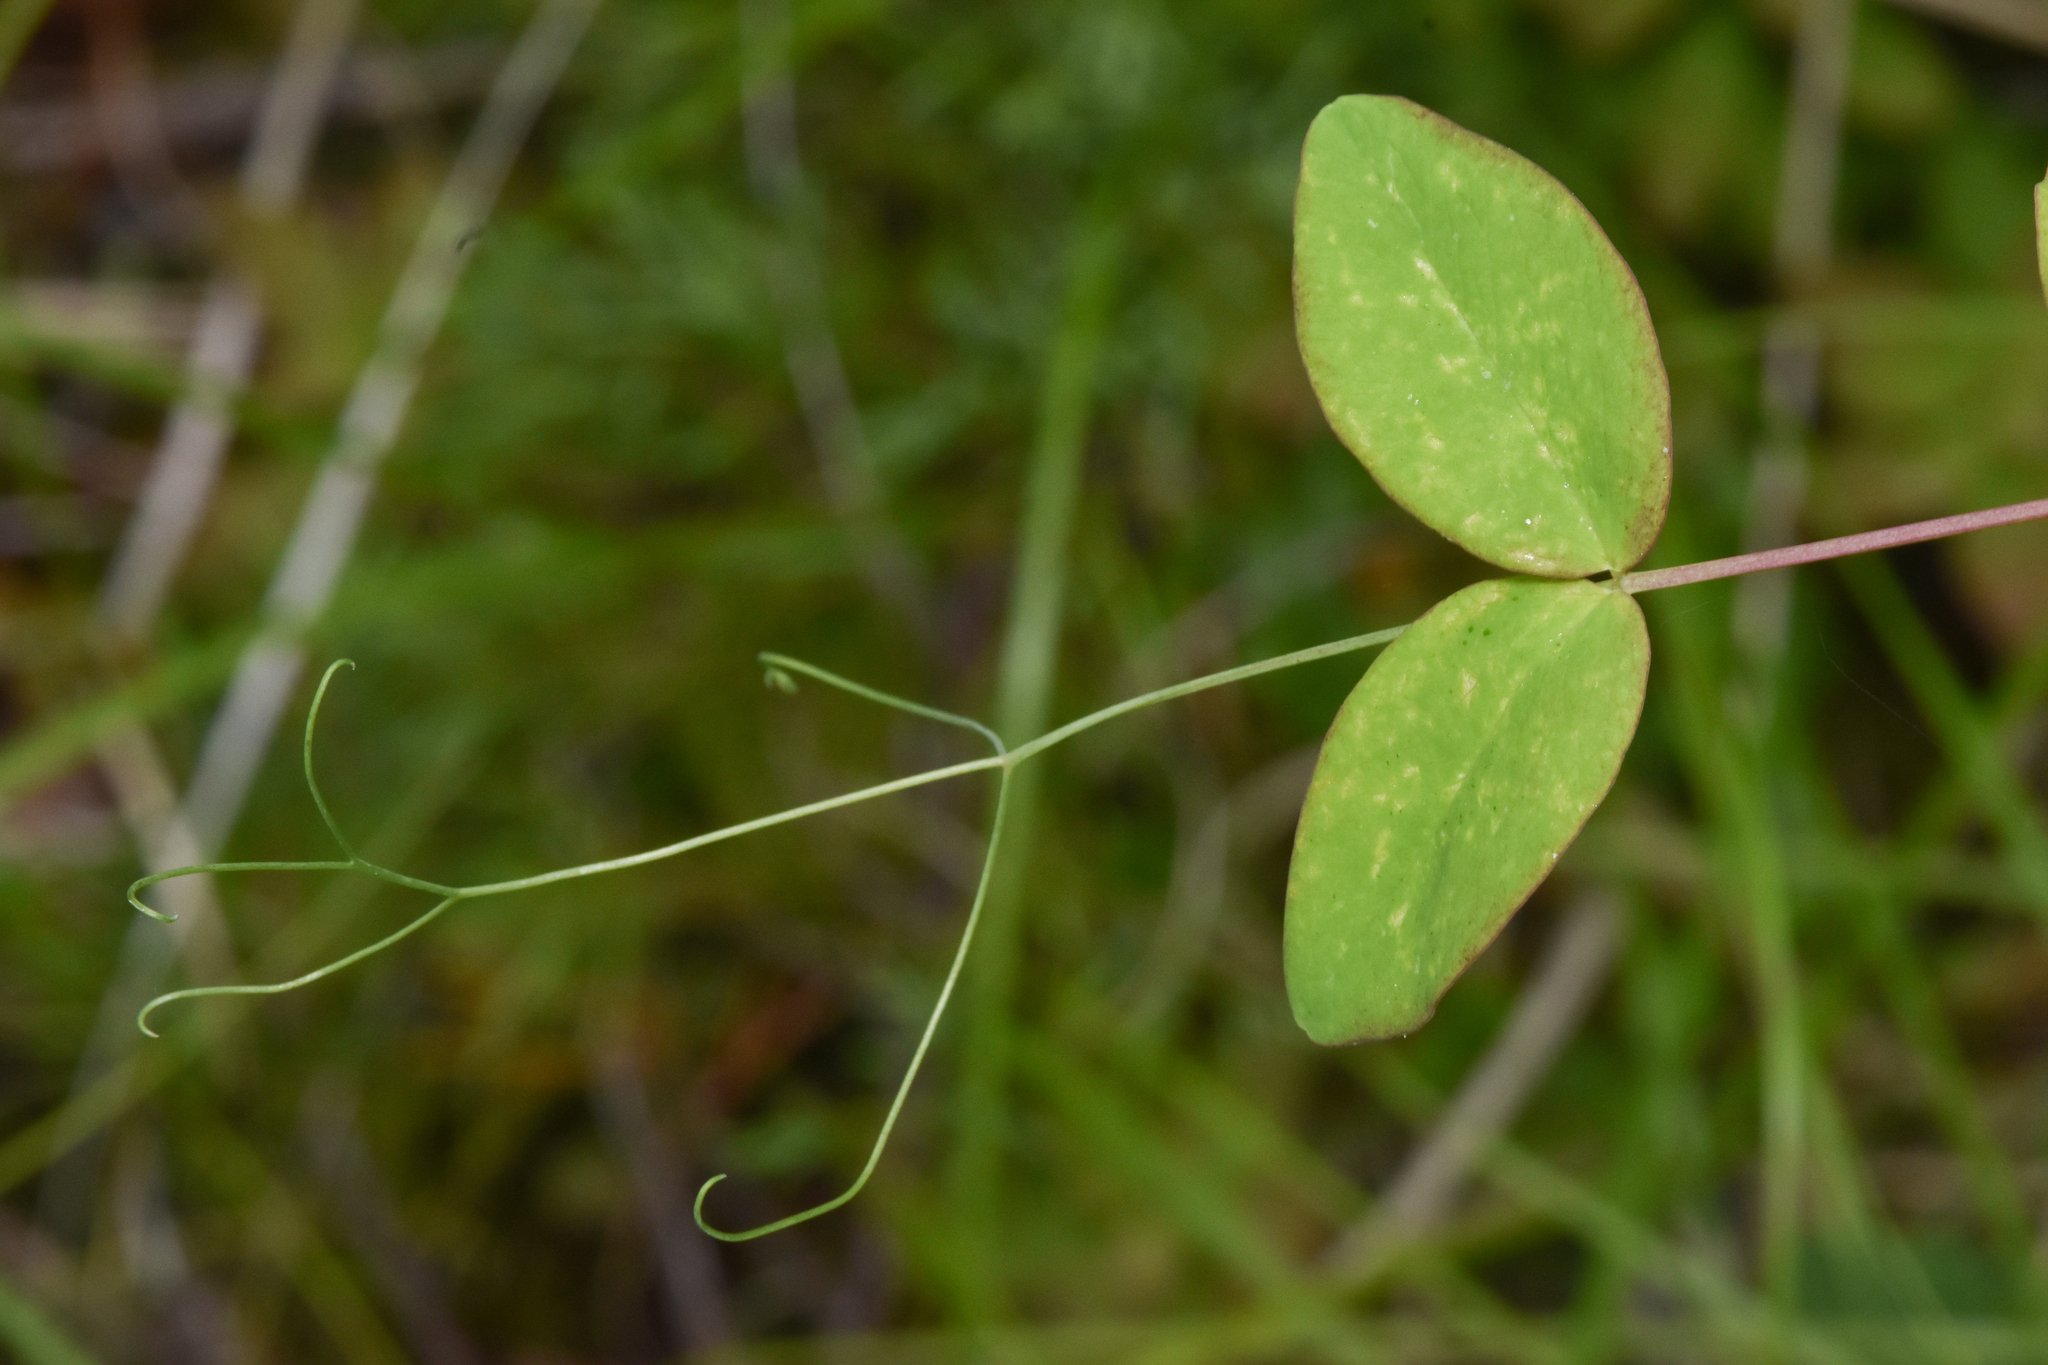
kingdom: Plantae
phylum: Tracheophyta
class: Magnoliopsida
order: Fabales
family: Fabaceae
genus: Lathyrus
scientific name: Lathyrus ochroleucus
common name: Pale vetchling
